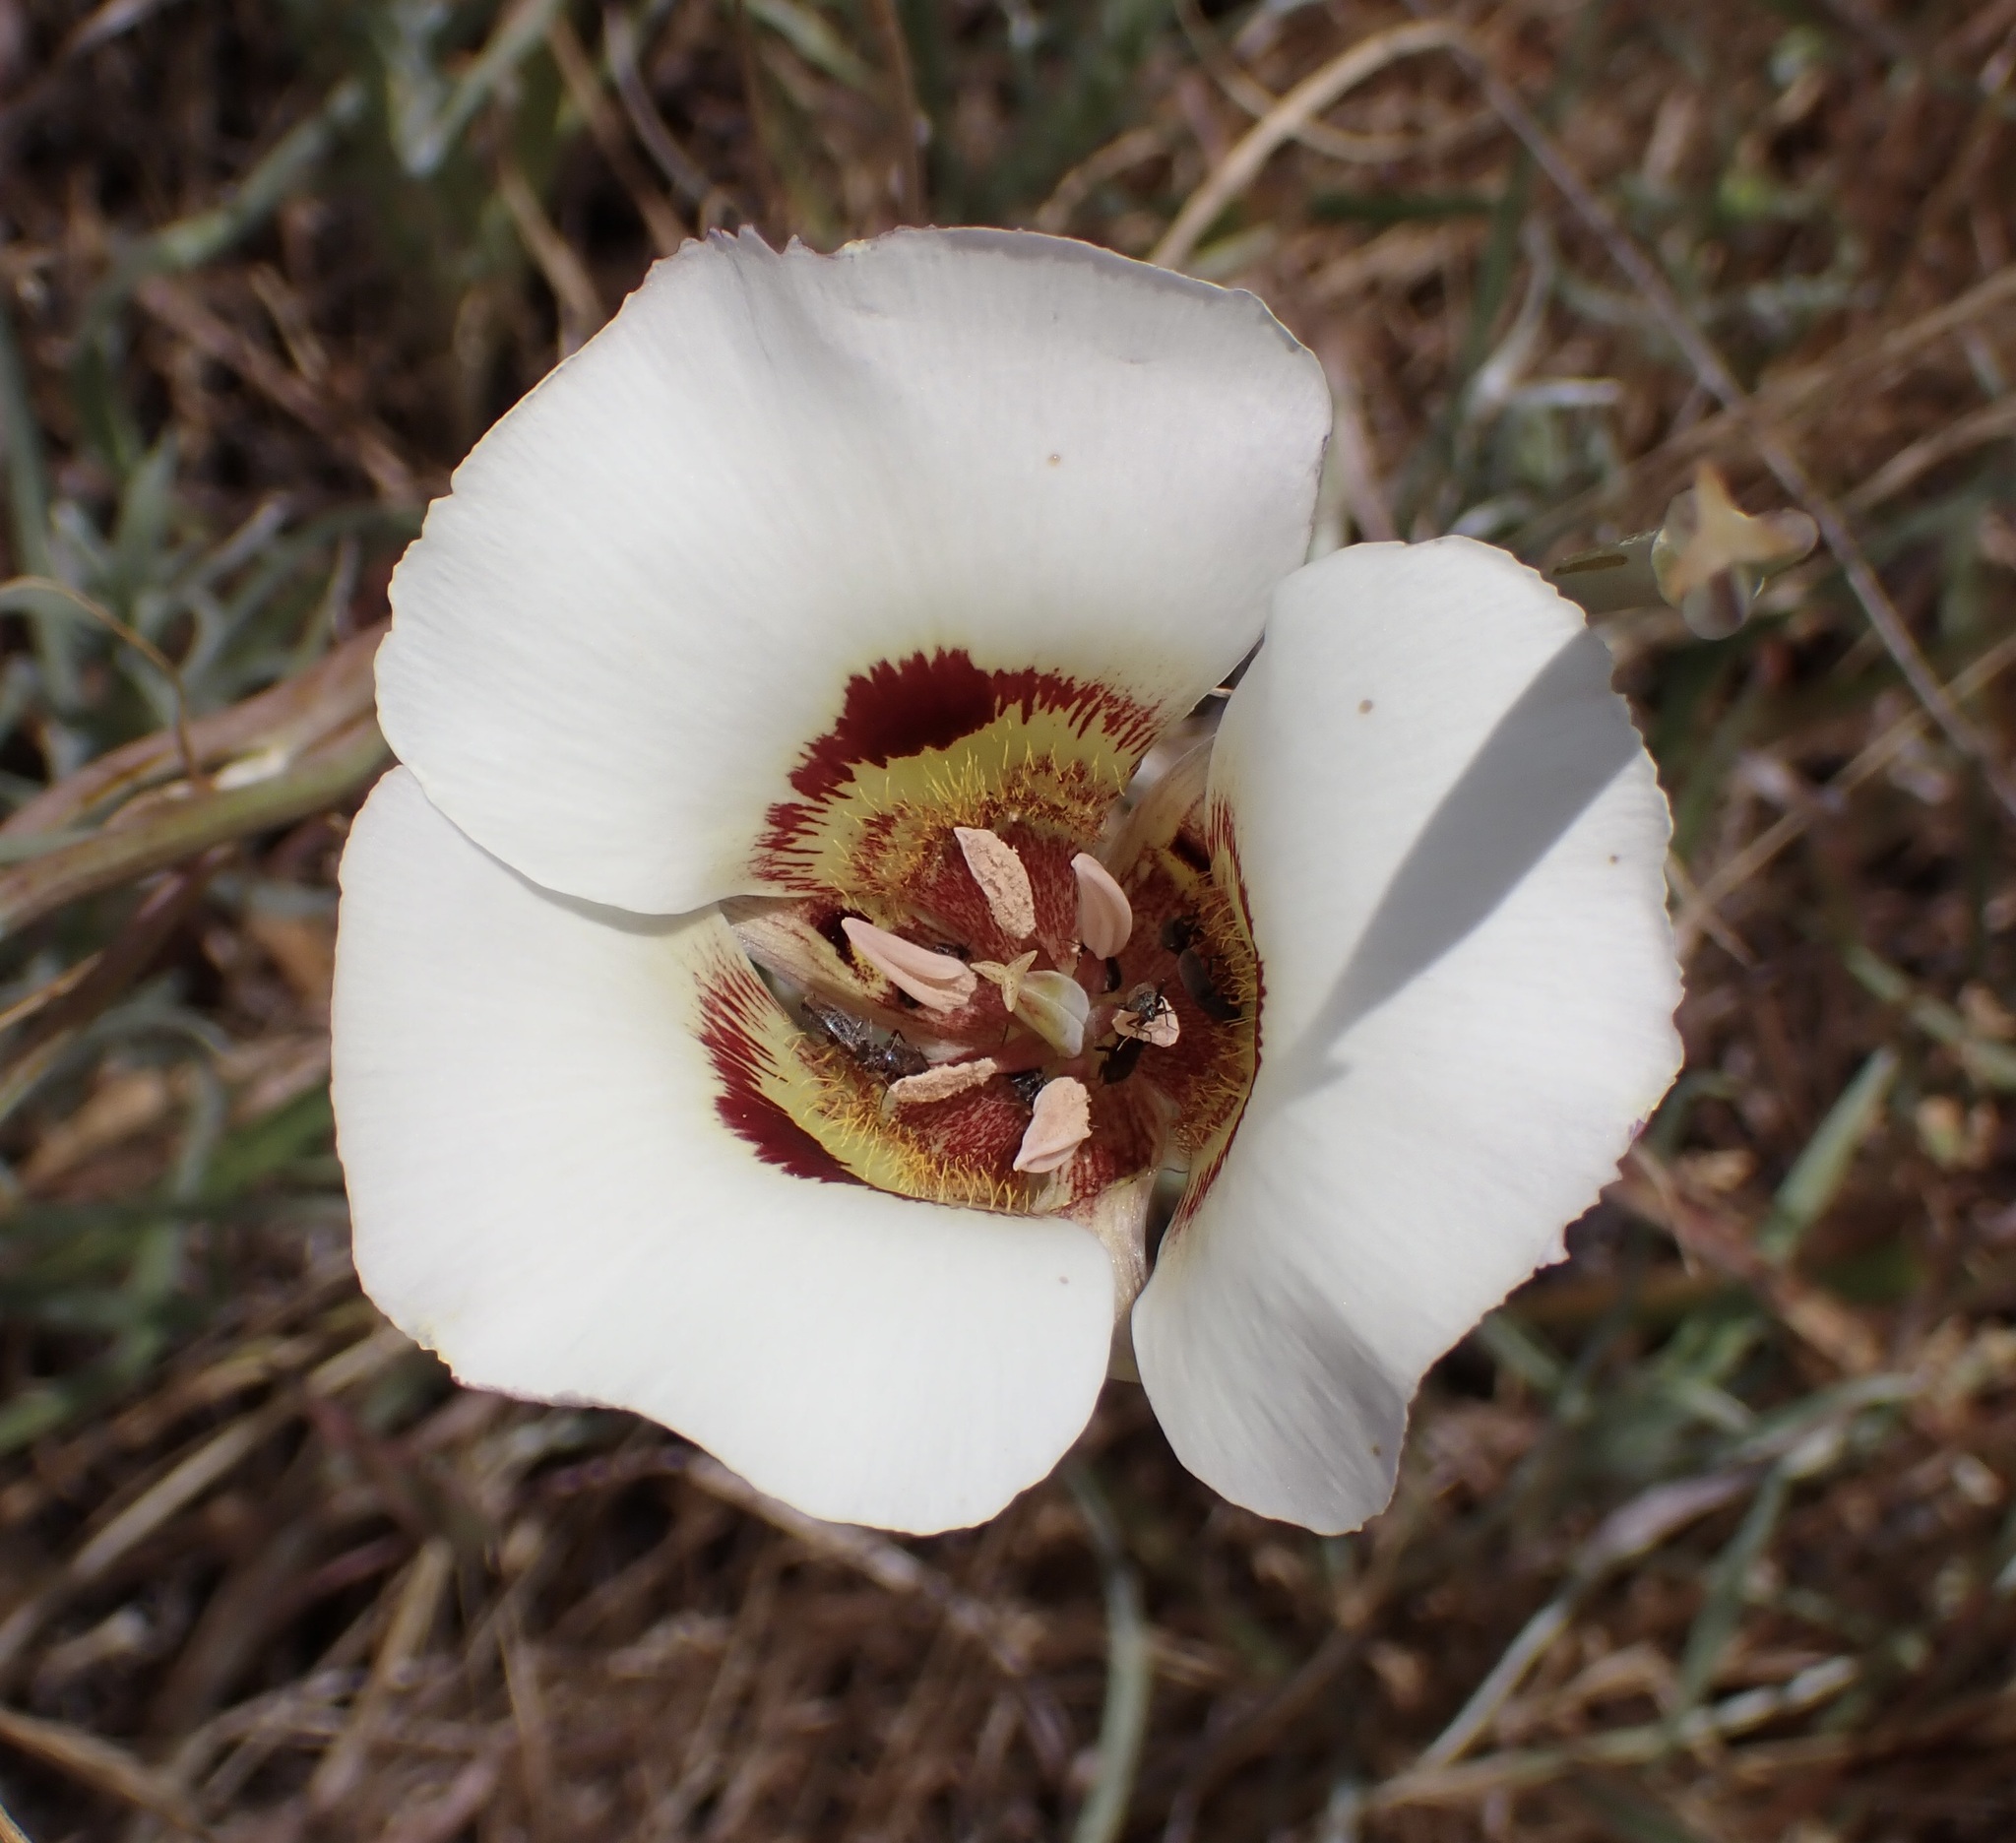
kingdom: Plantae
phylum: Tracheophyta
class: Liliopsida
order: Liliales
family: Liliaceae
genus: Calochortus
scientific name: Calochortus vestae
